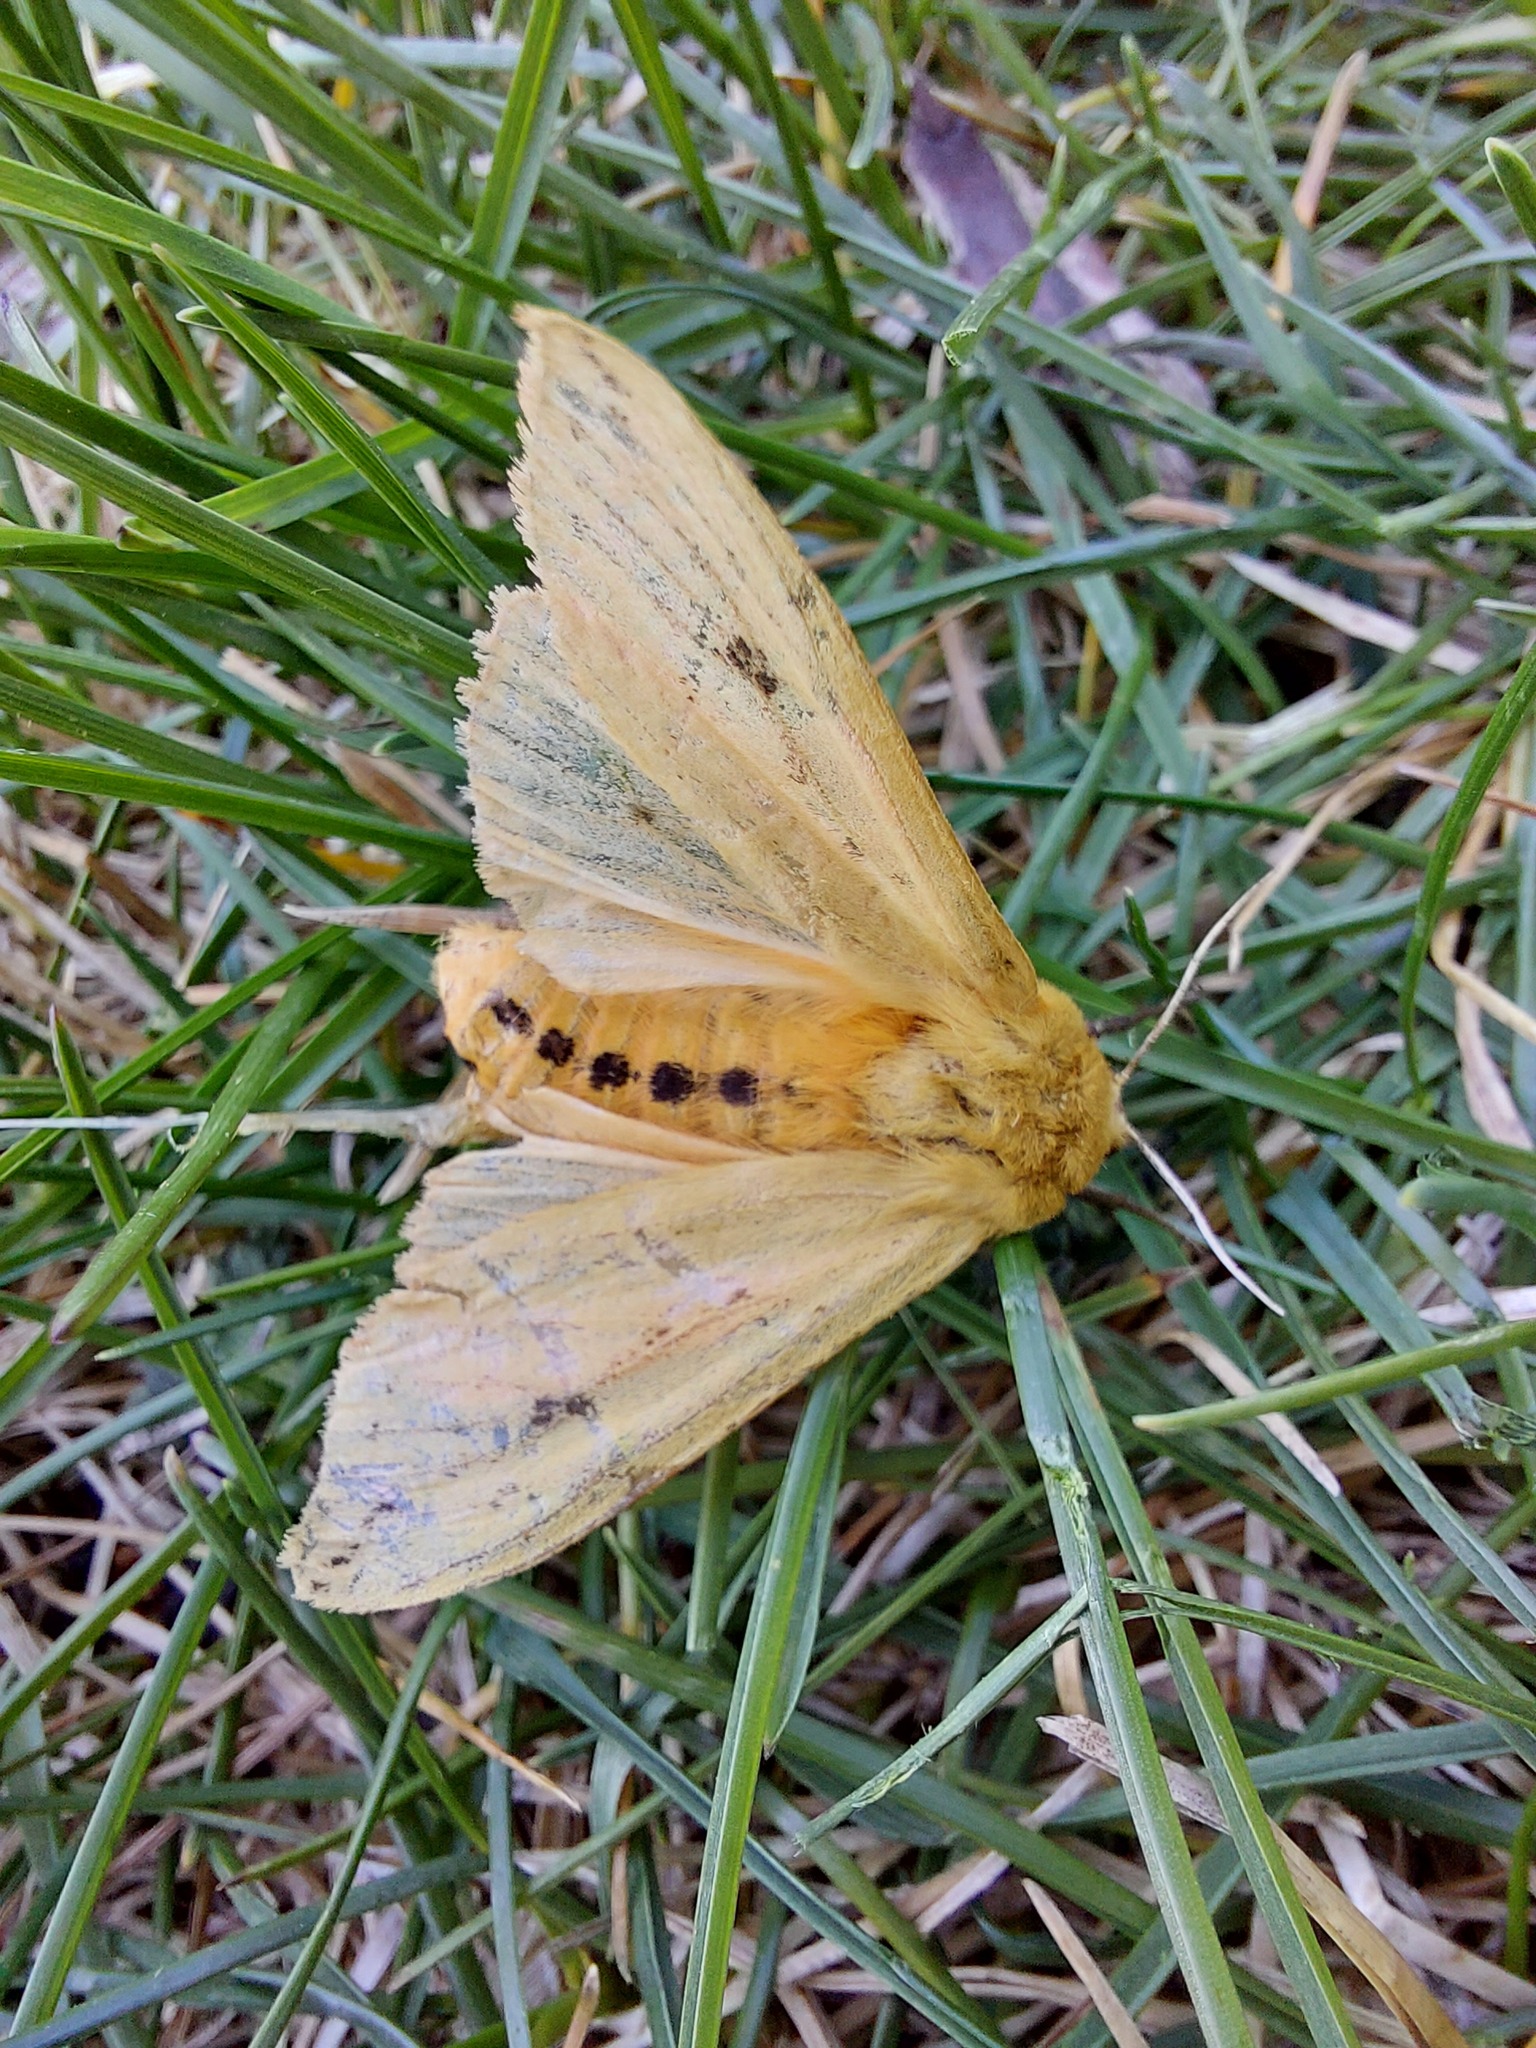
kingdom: Animalia
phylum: Arthropoda
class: Insecta
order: Lepidoptera
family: Erebidae
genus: Pyrrharctia
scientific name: Pyrrharctia isabella
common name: Isabella tiger moth
